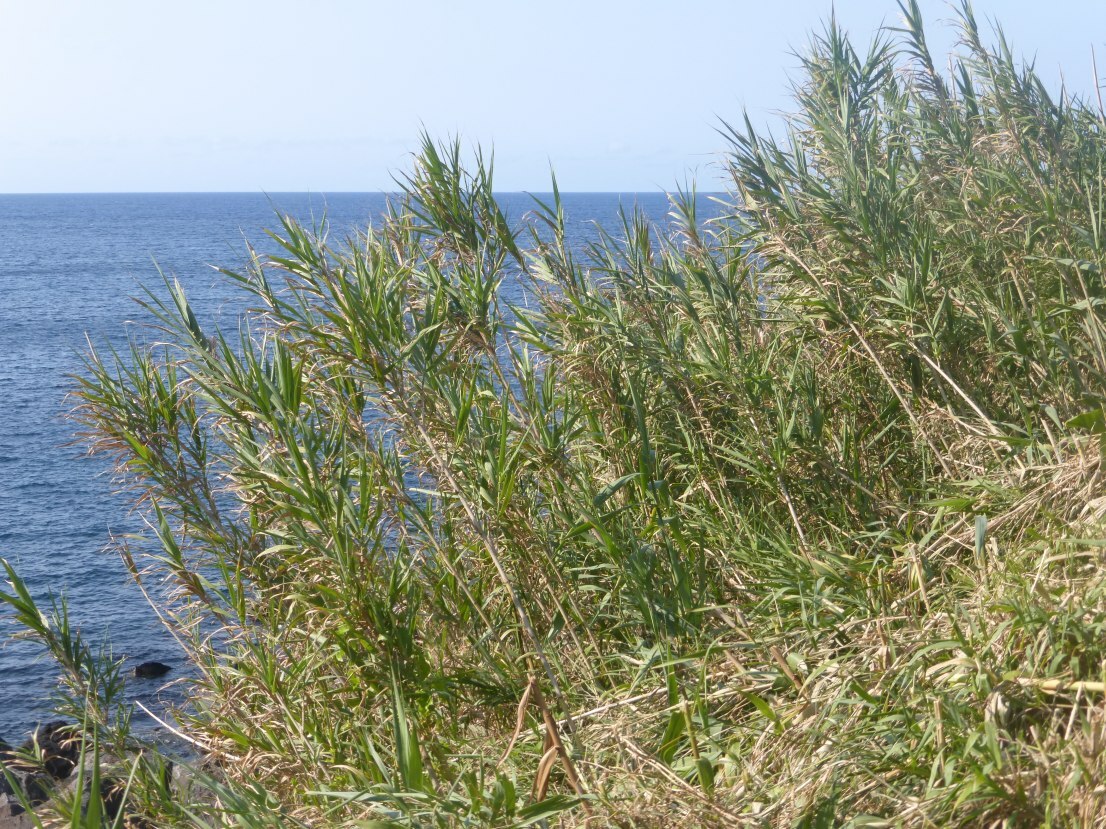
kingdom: Plantae
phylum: Tracheophyta
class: Liliopsida
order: Poales
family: Poaceae
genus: Arundo
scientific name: Arundo donax
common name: Giant reed
